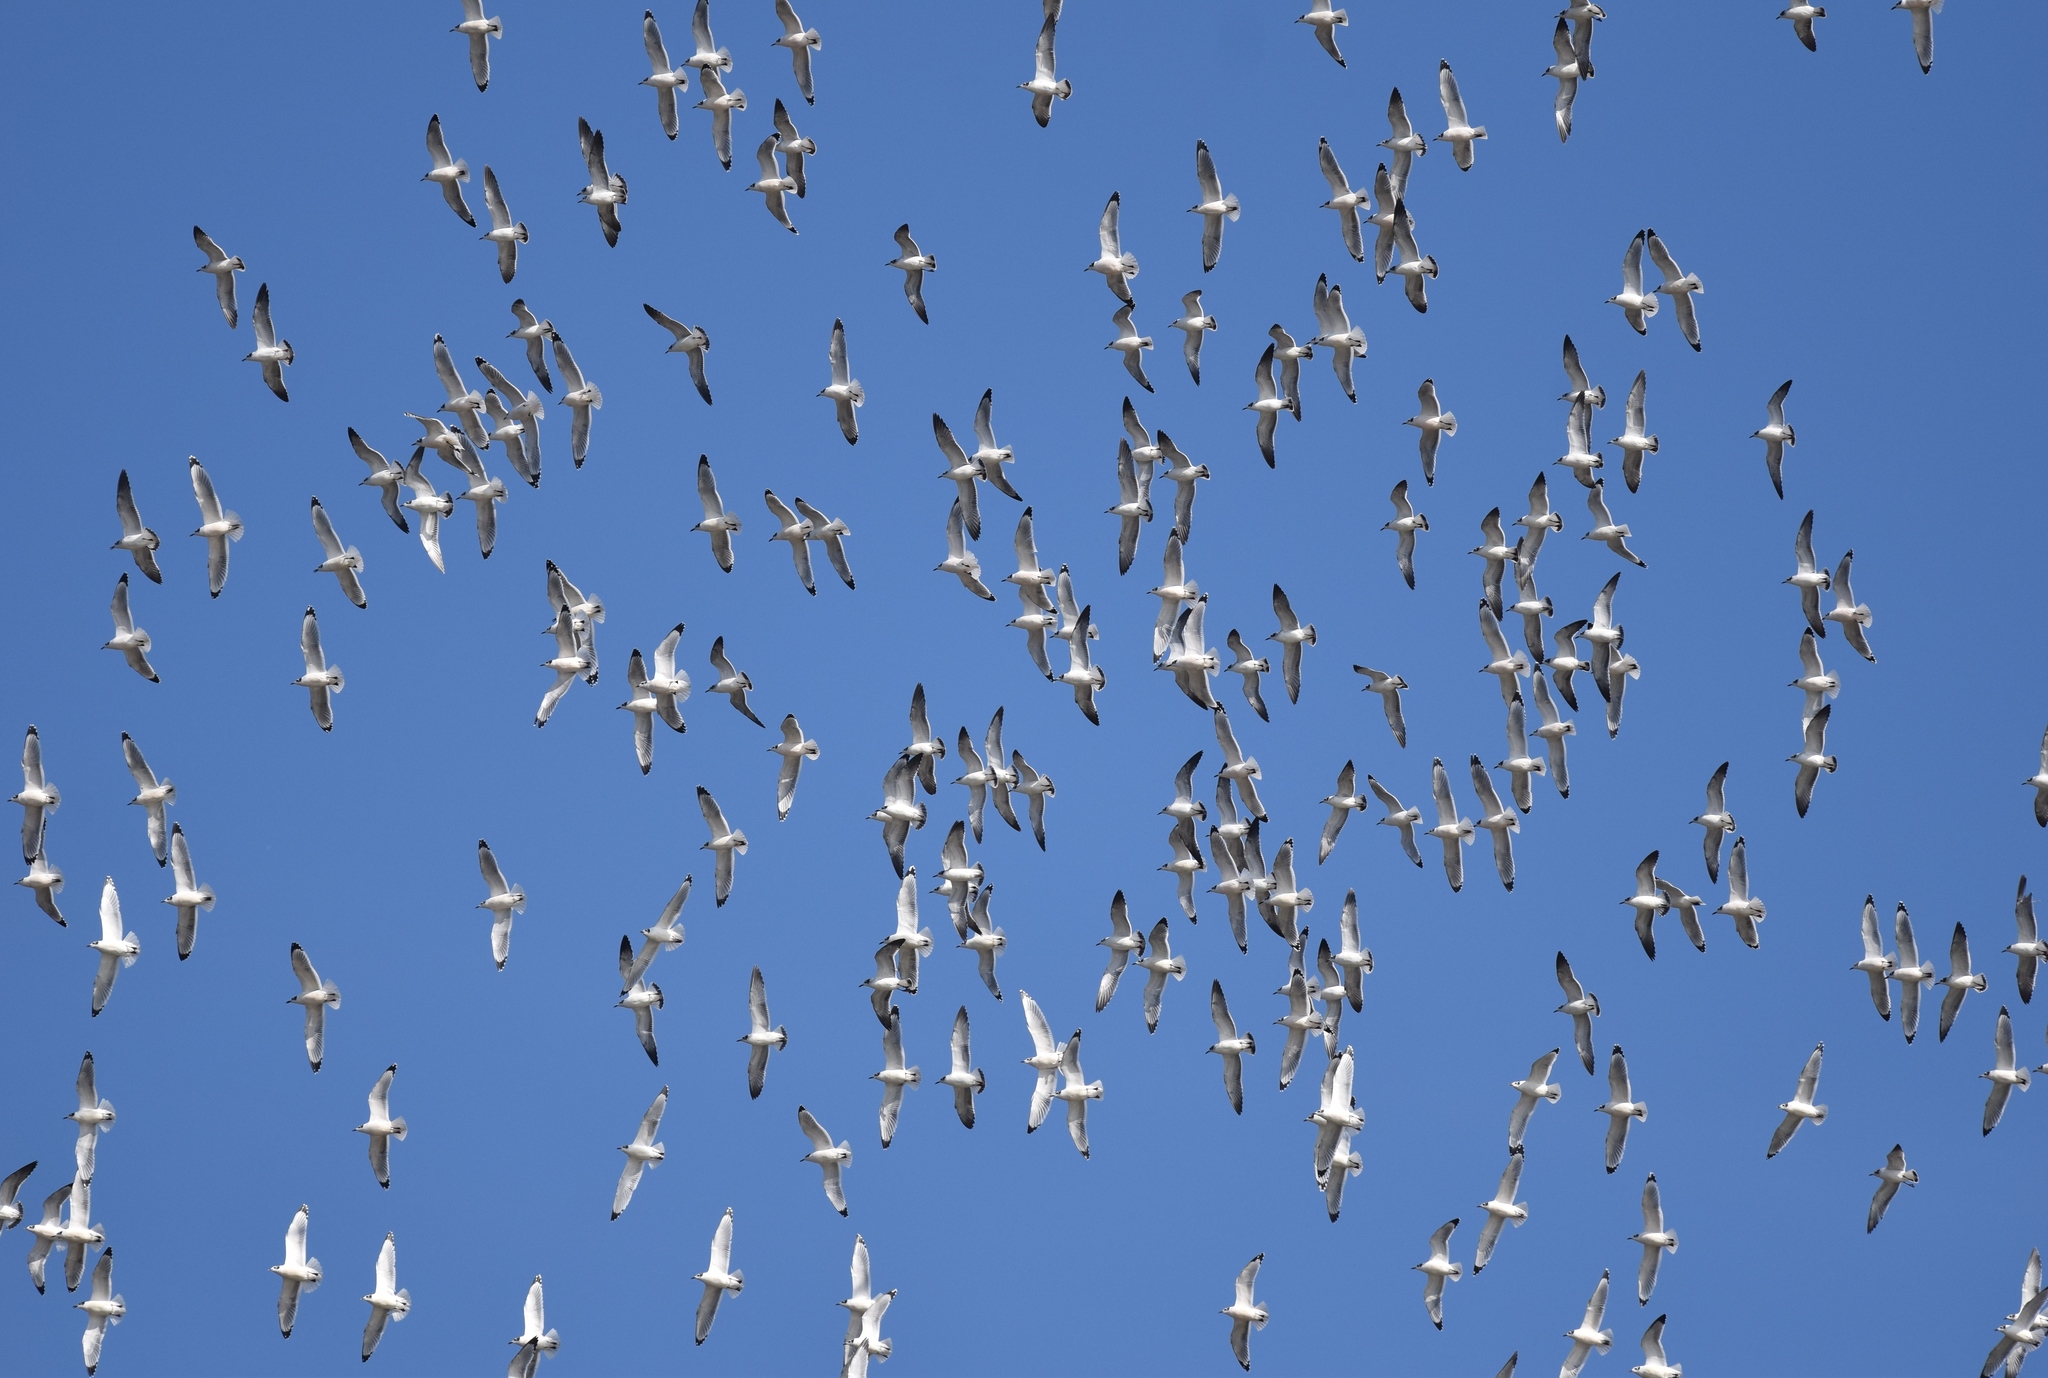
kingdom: Animalia
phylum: Chordata
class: Aves
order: Charadriiformes
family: Laridae
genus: Leucophaeus
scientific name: Leucophaeus pipixcan
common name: Franklin's gull
